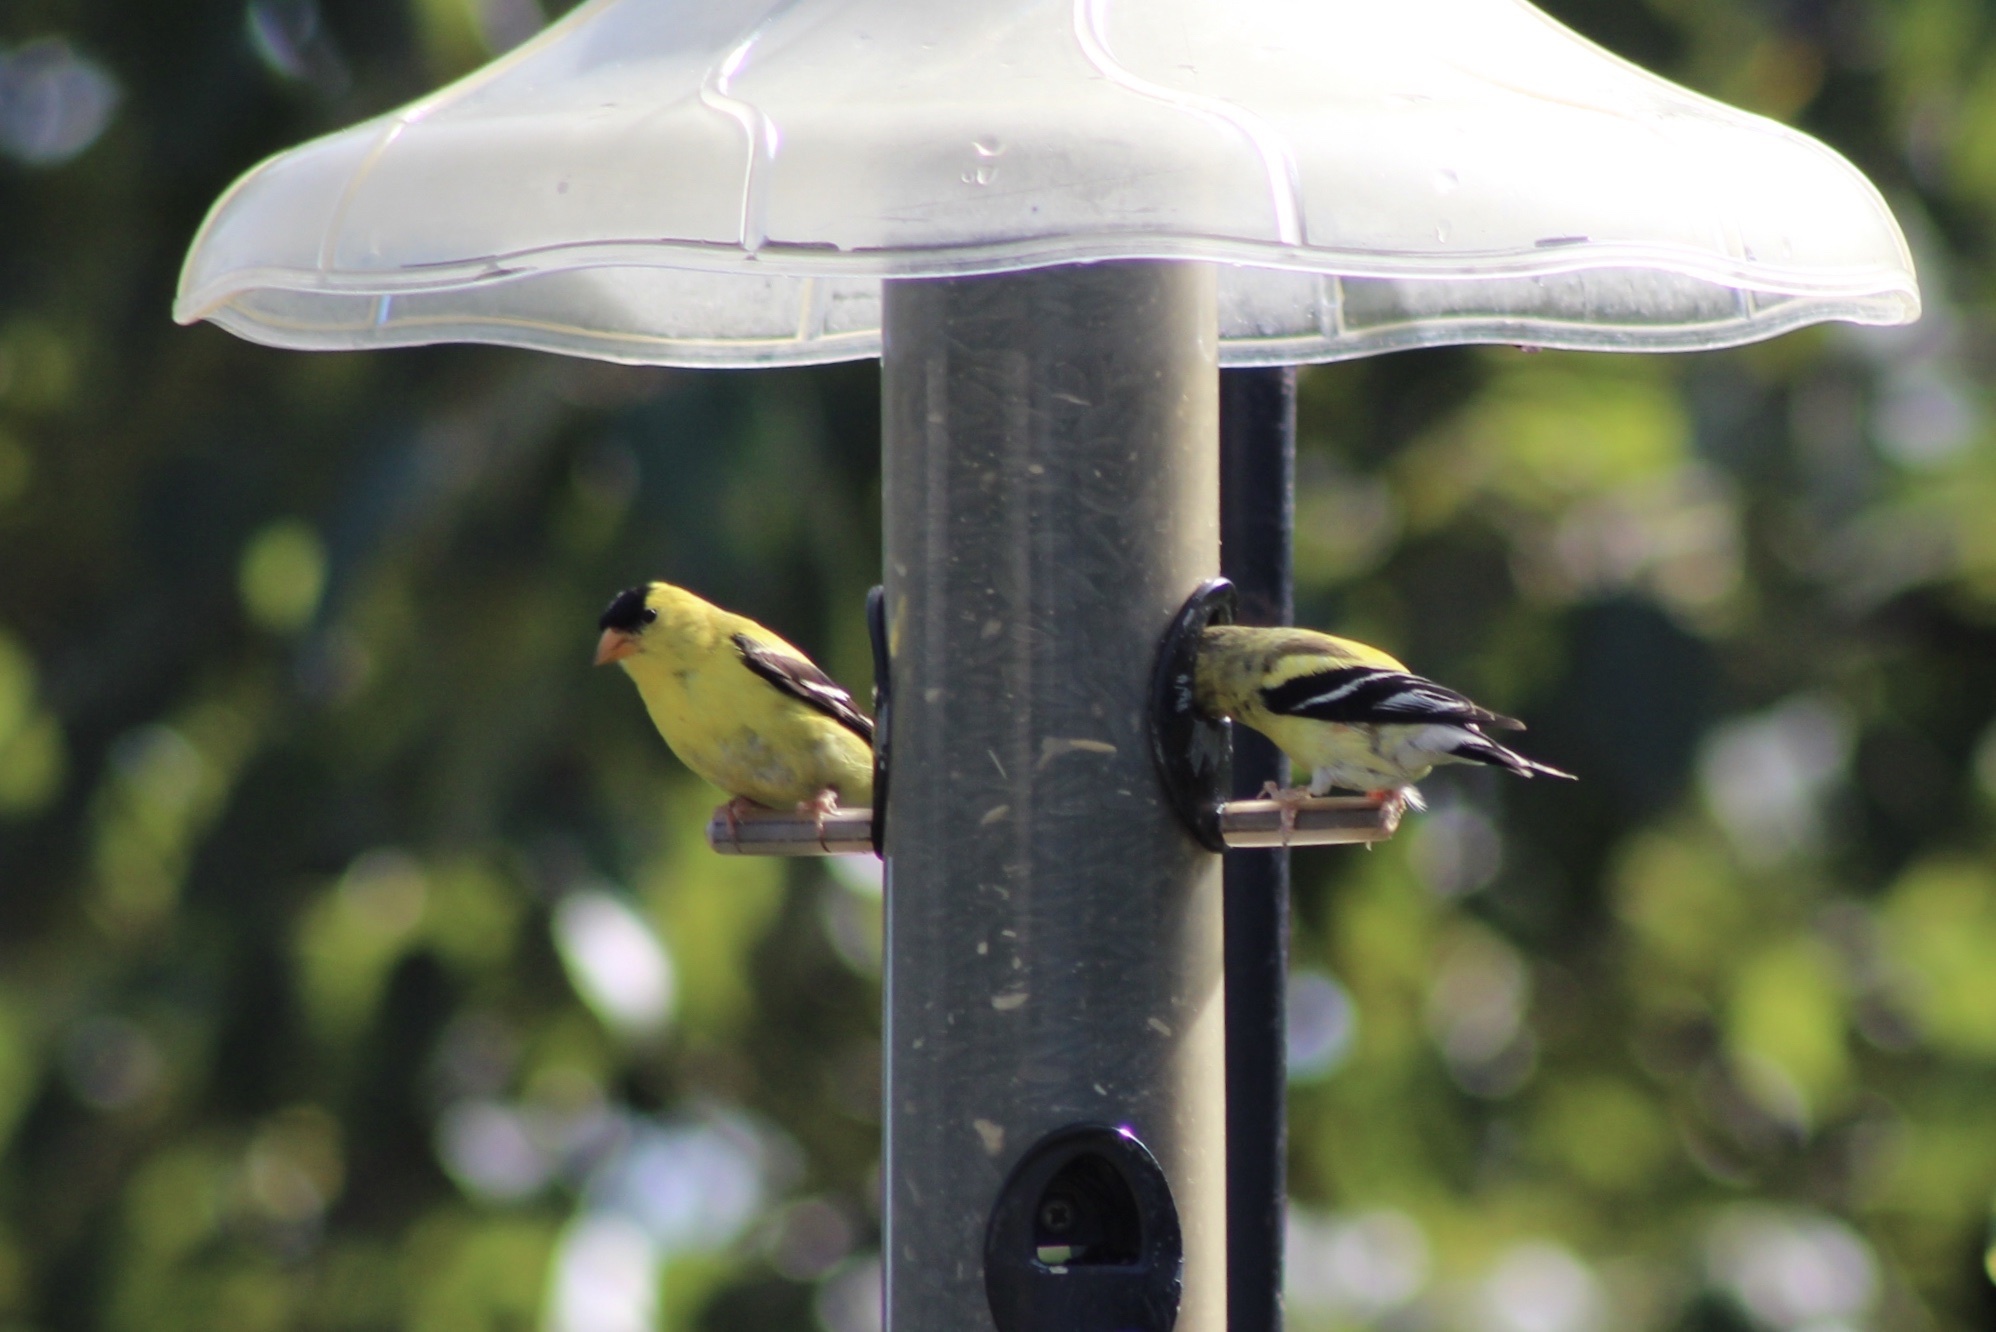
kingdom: Animalia
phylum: Chordata
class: Aves
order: Passeriformes
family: Fringillidae
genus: Spinus
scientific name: Spinus tristis
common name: American goldfinch
